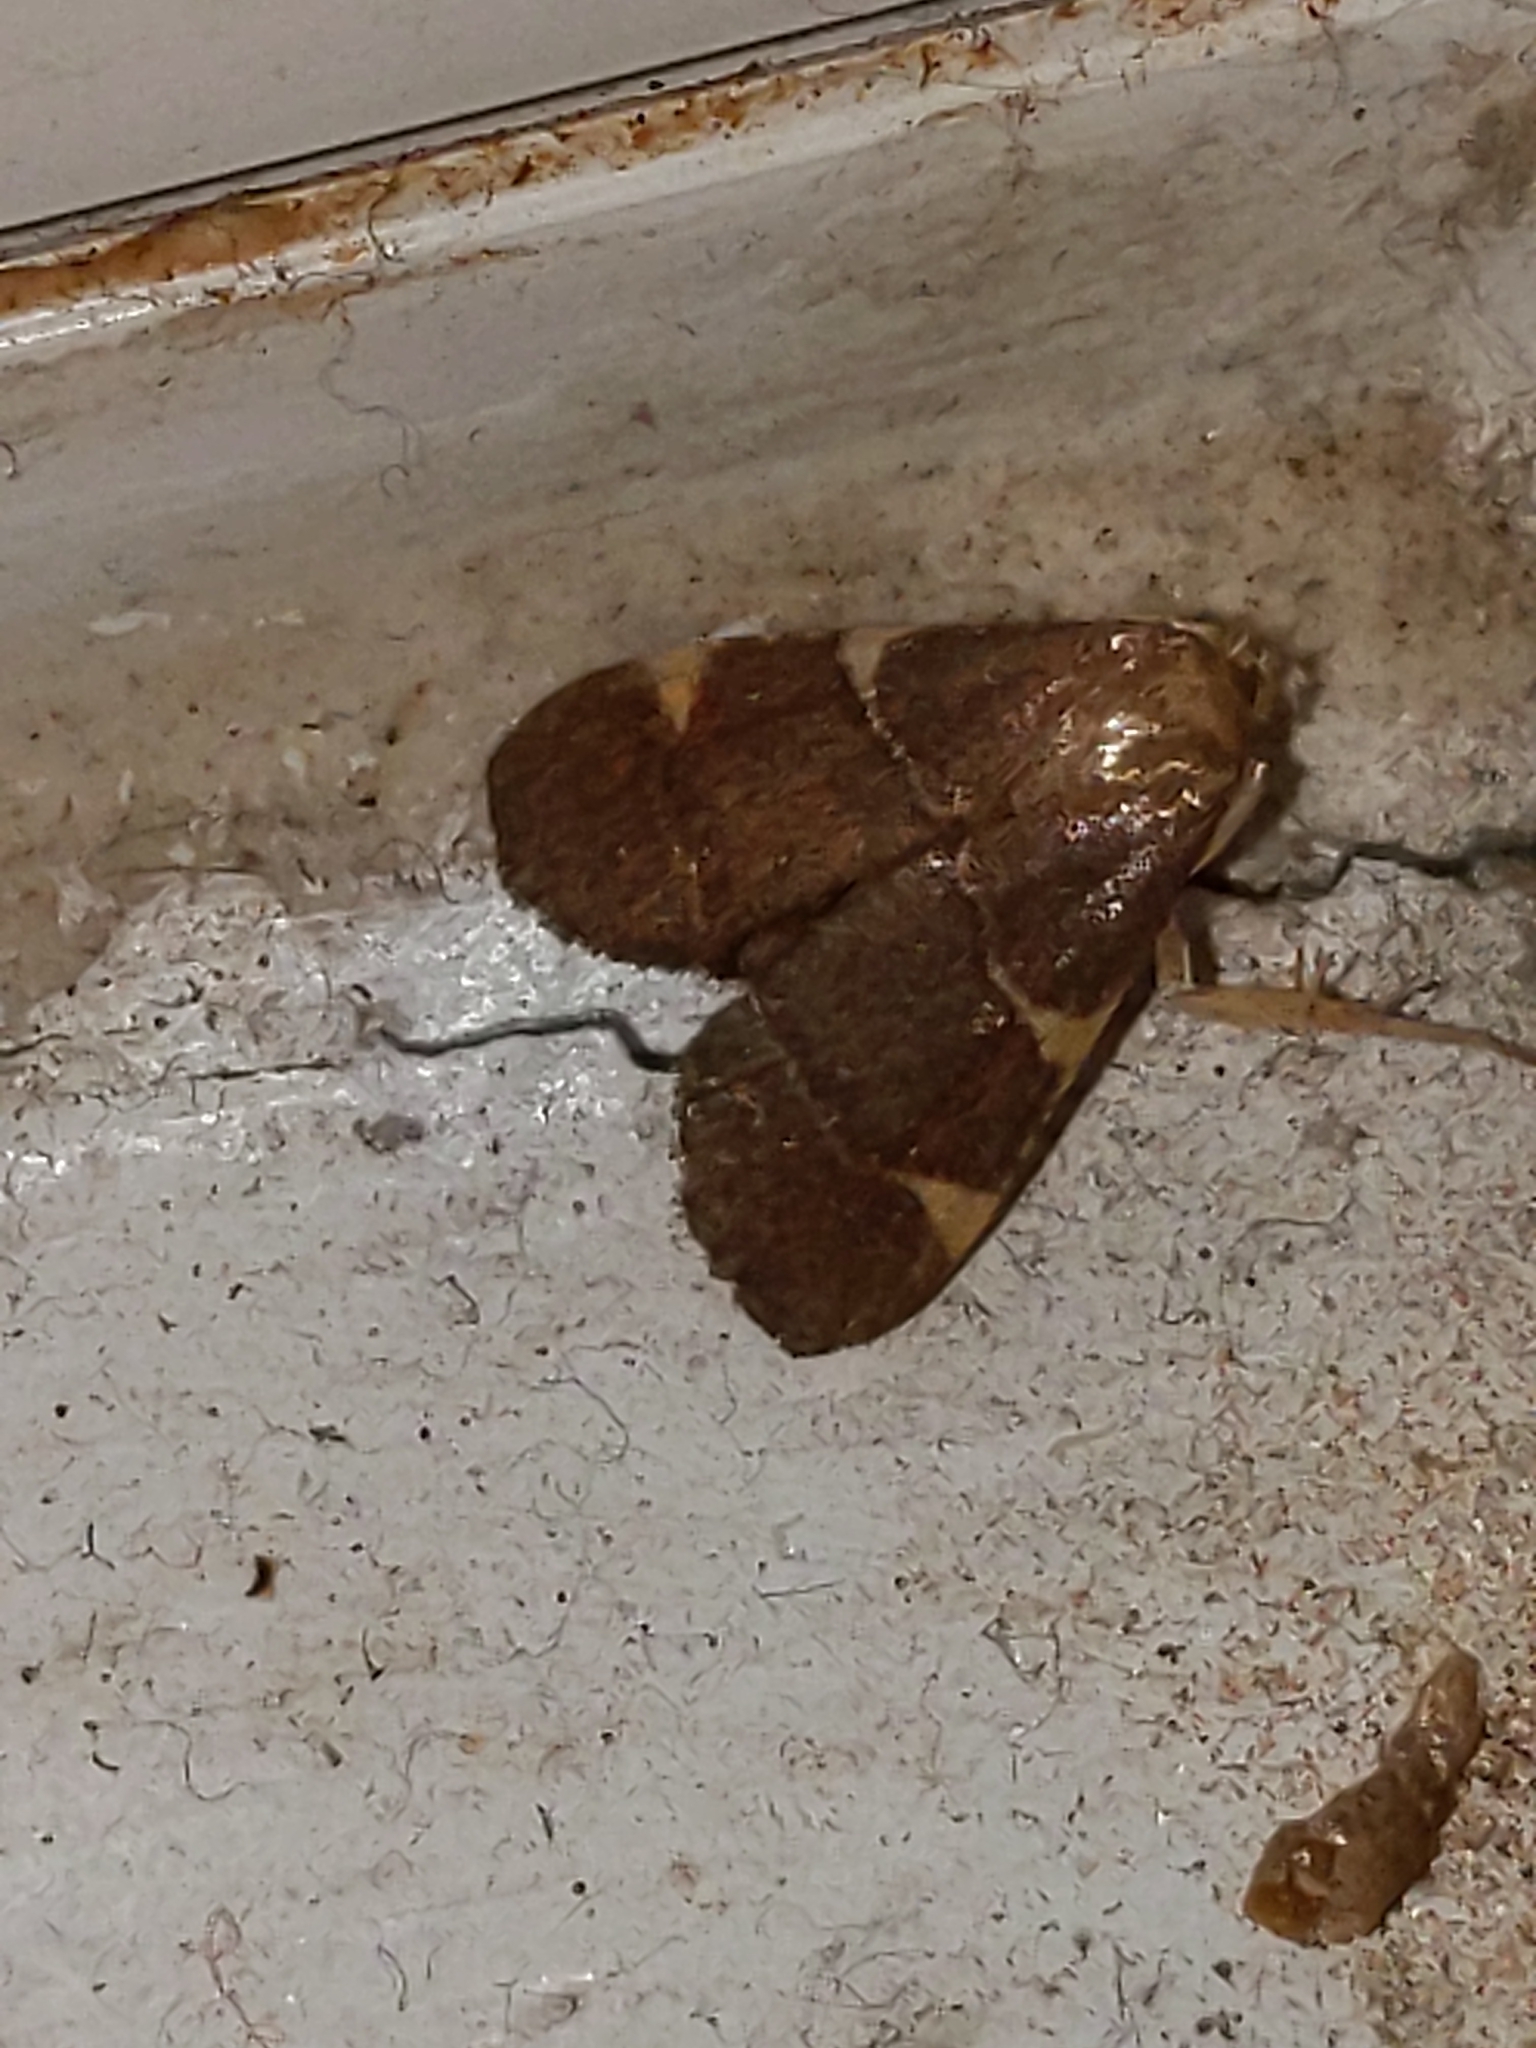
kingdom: Animalia
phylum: Arthropoda
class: Insecta
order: Lepidoptera
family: Pyralidae
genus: Hypsopygia
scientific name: Hypsopygia
